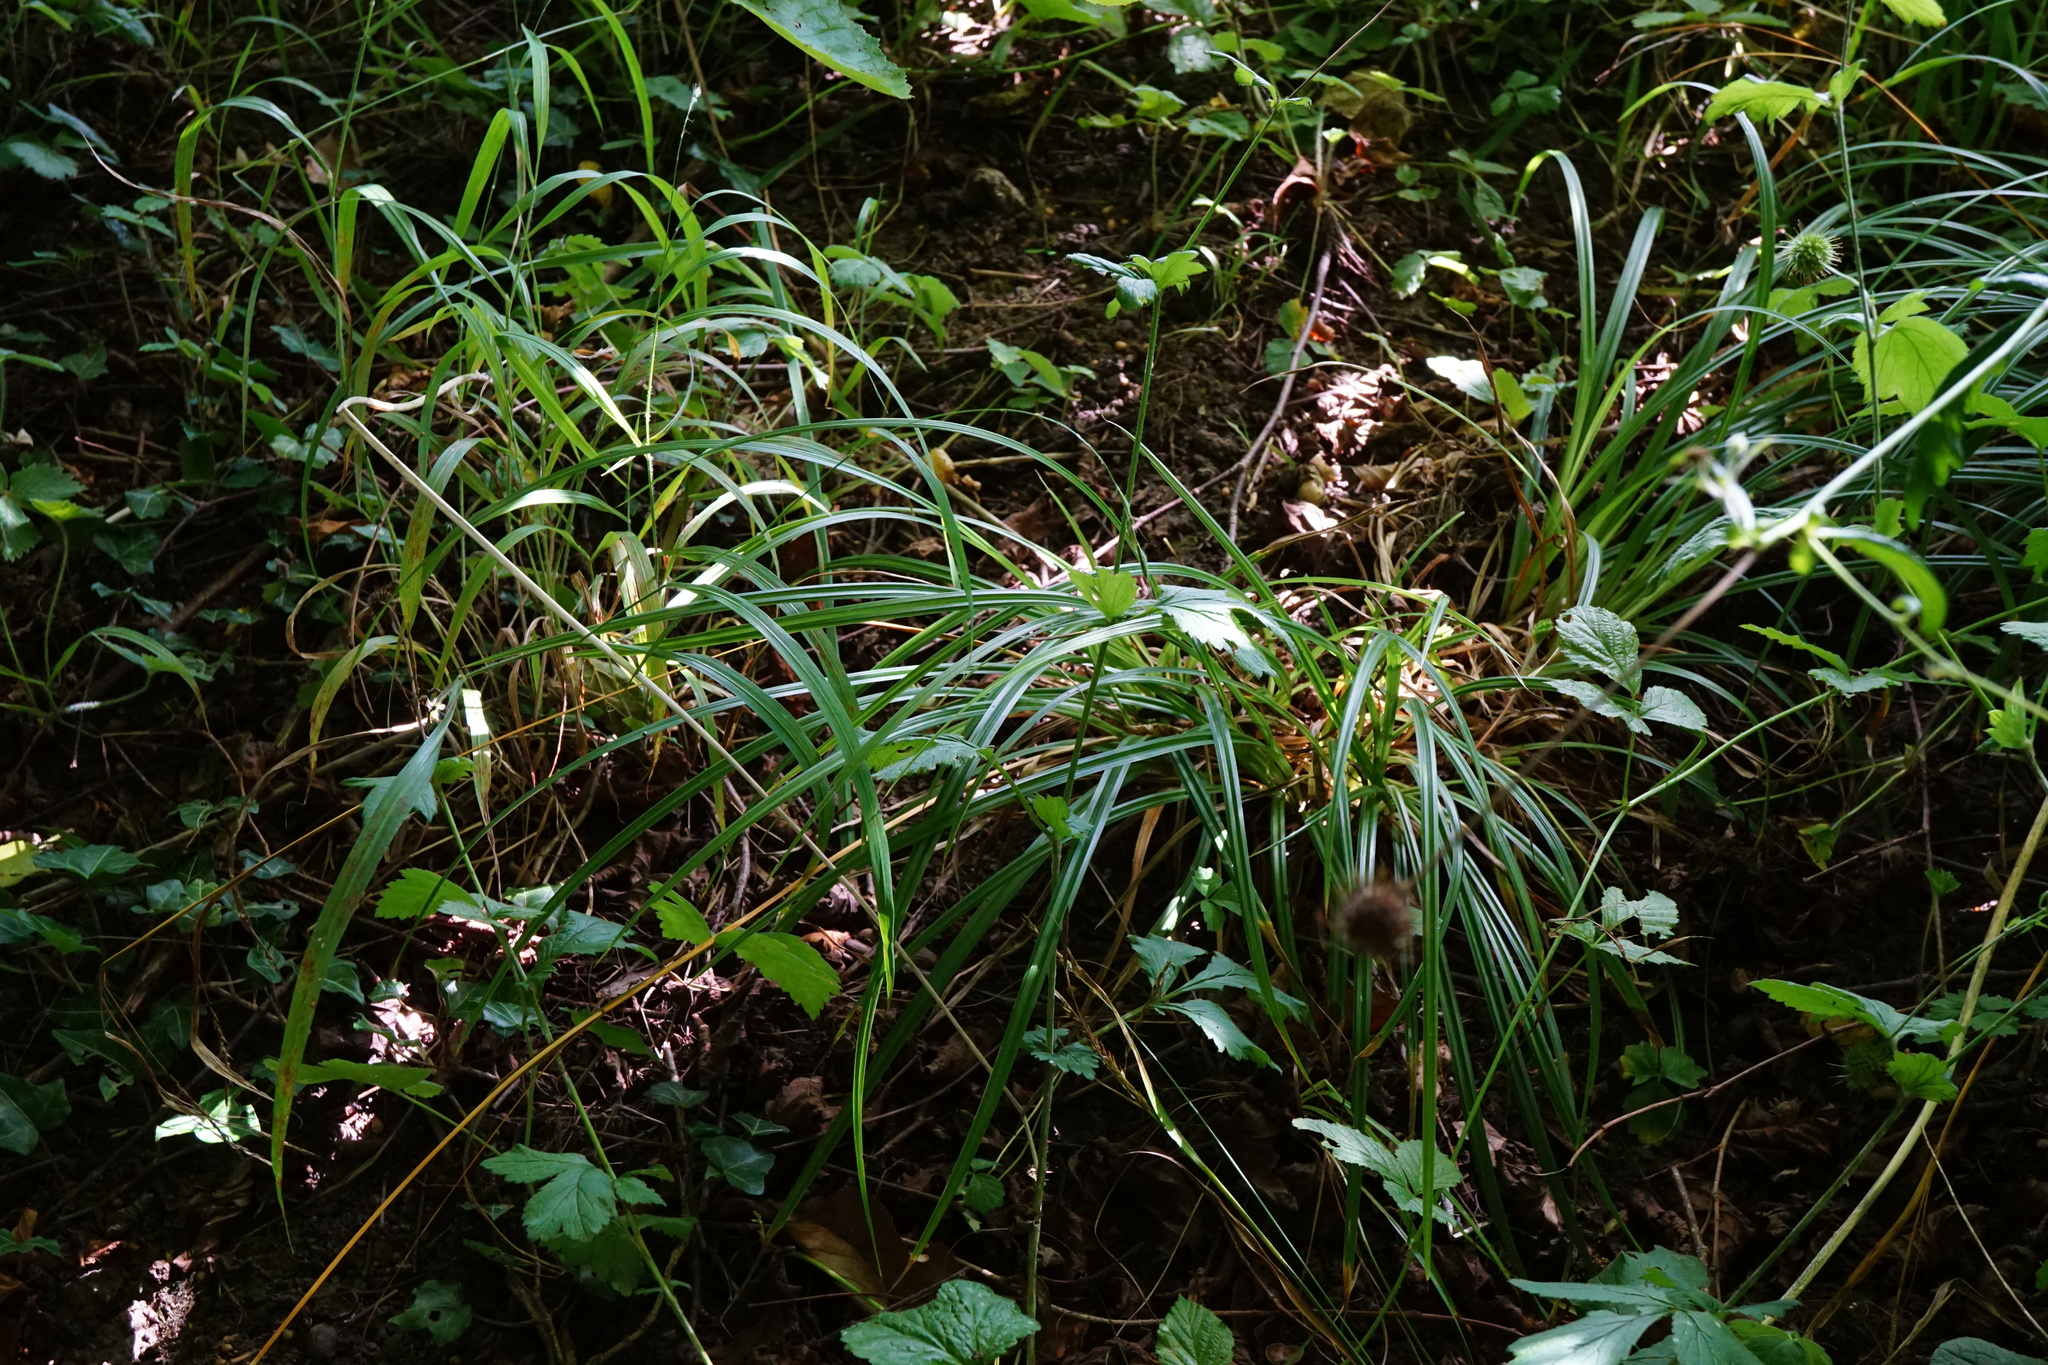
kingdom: Plantae
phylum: Tracheophyta
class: Liliopsida
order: Poales
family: Cyperaceae
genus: Carex
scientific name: Carex sylvatica
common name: Wood-sedge
